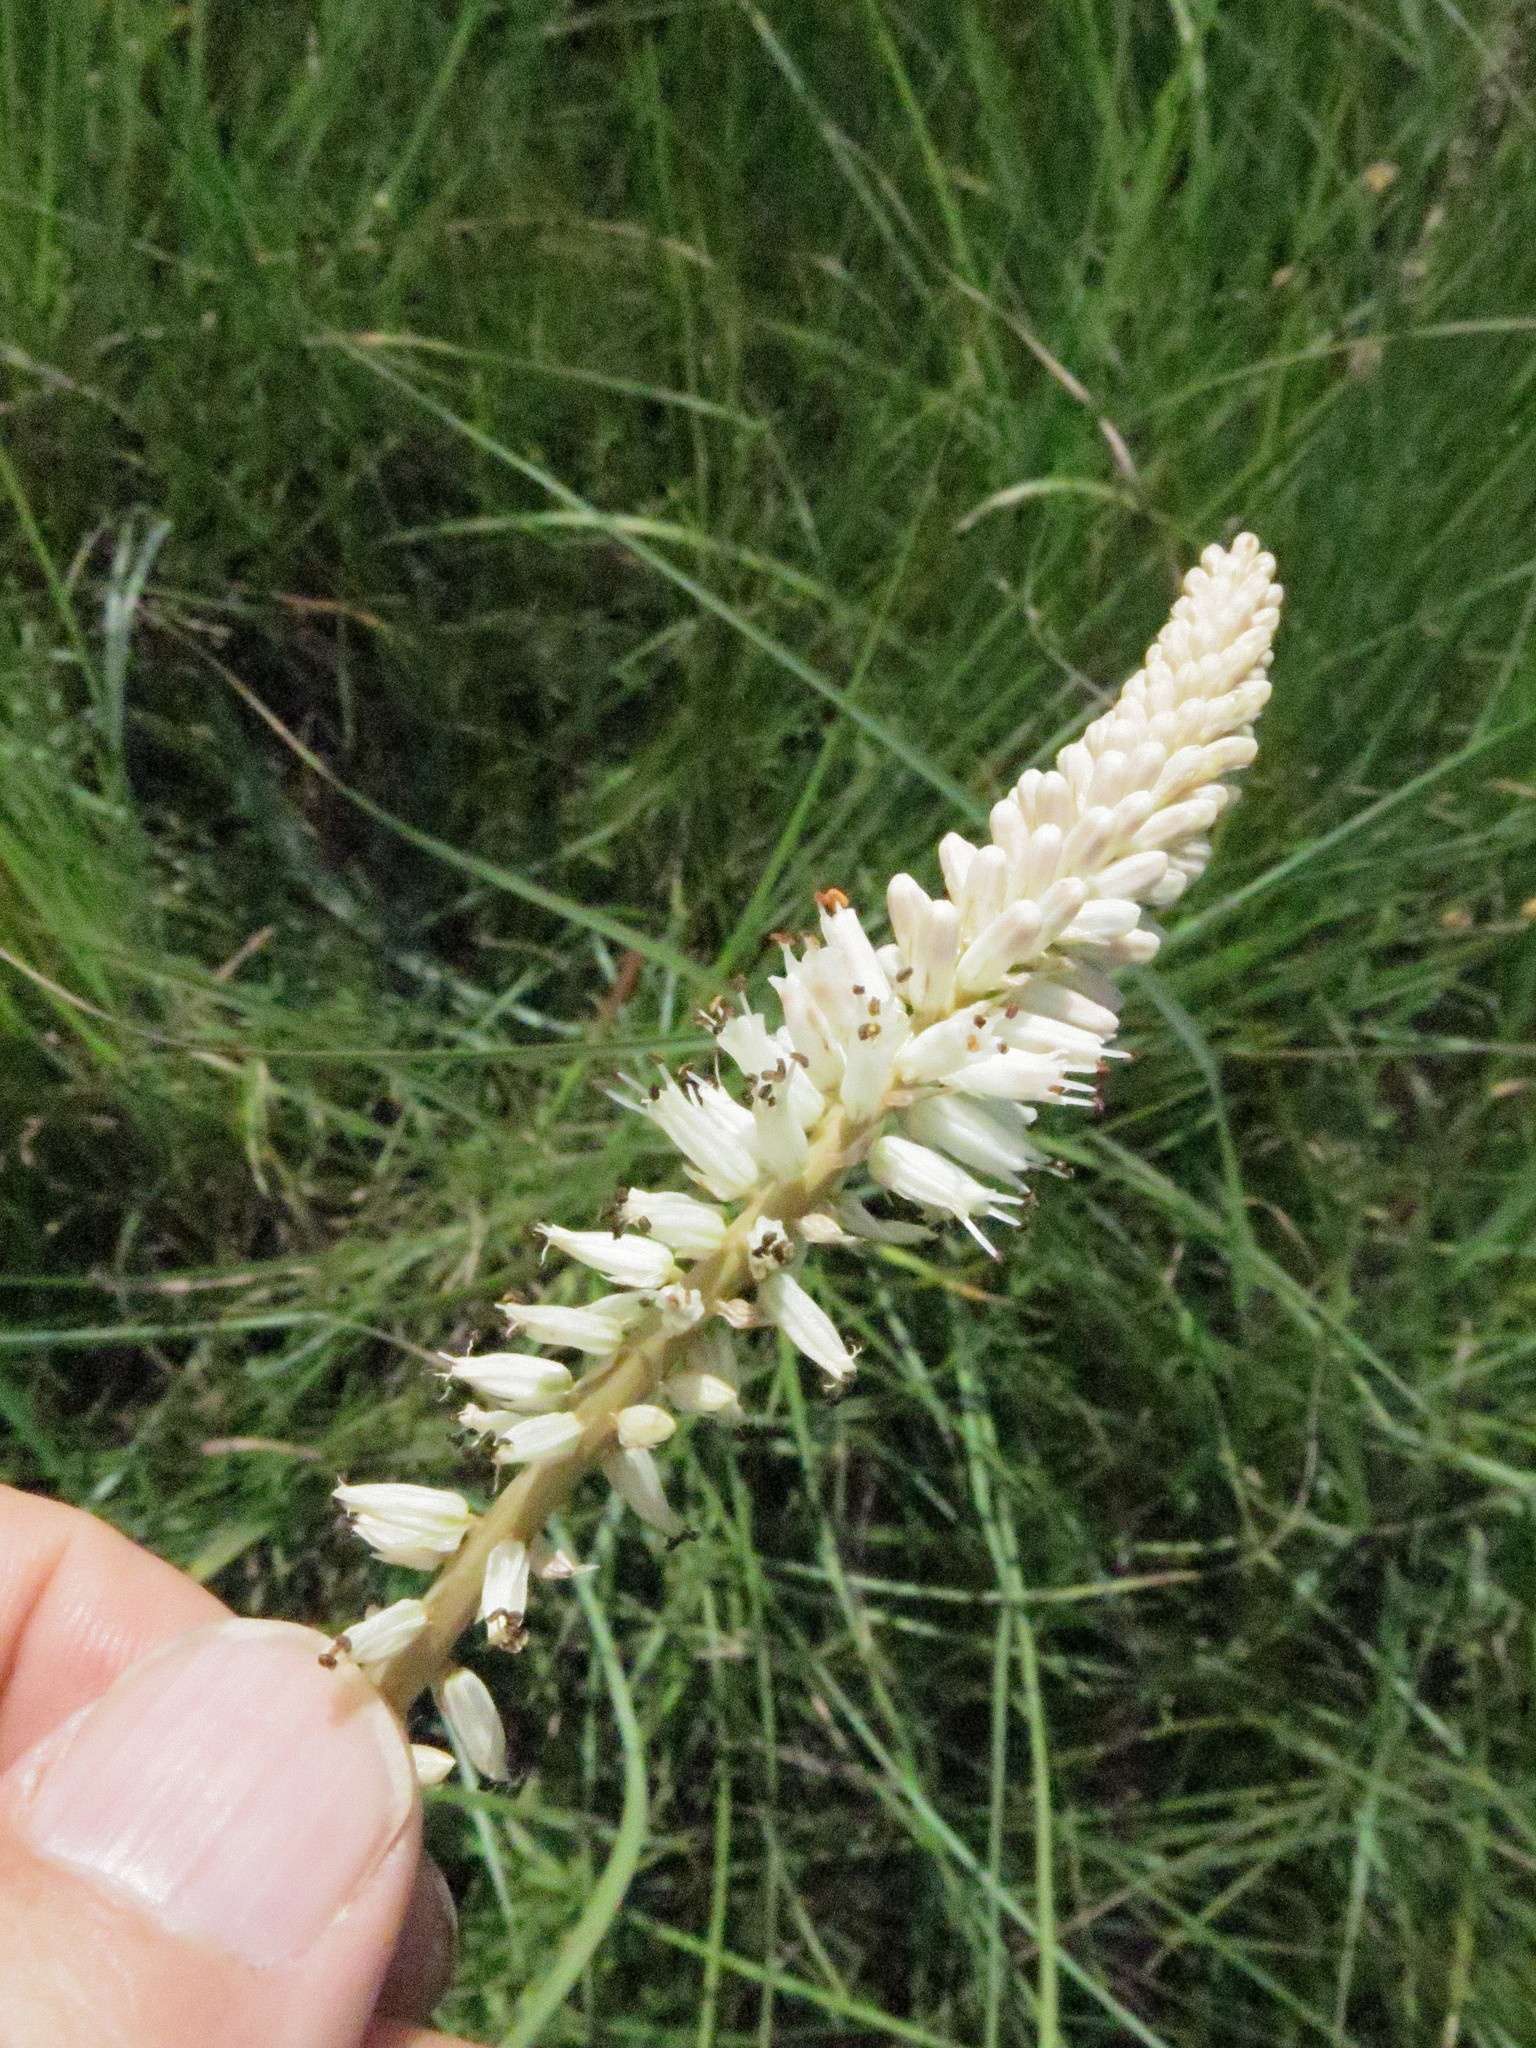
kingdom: Plantae
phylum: Tracheophyta
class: Liliopsida
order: Asparagales
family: Asphodelaceae
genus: Kniphofia
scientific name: Kniphofia buchananii
